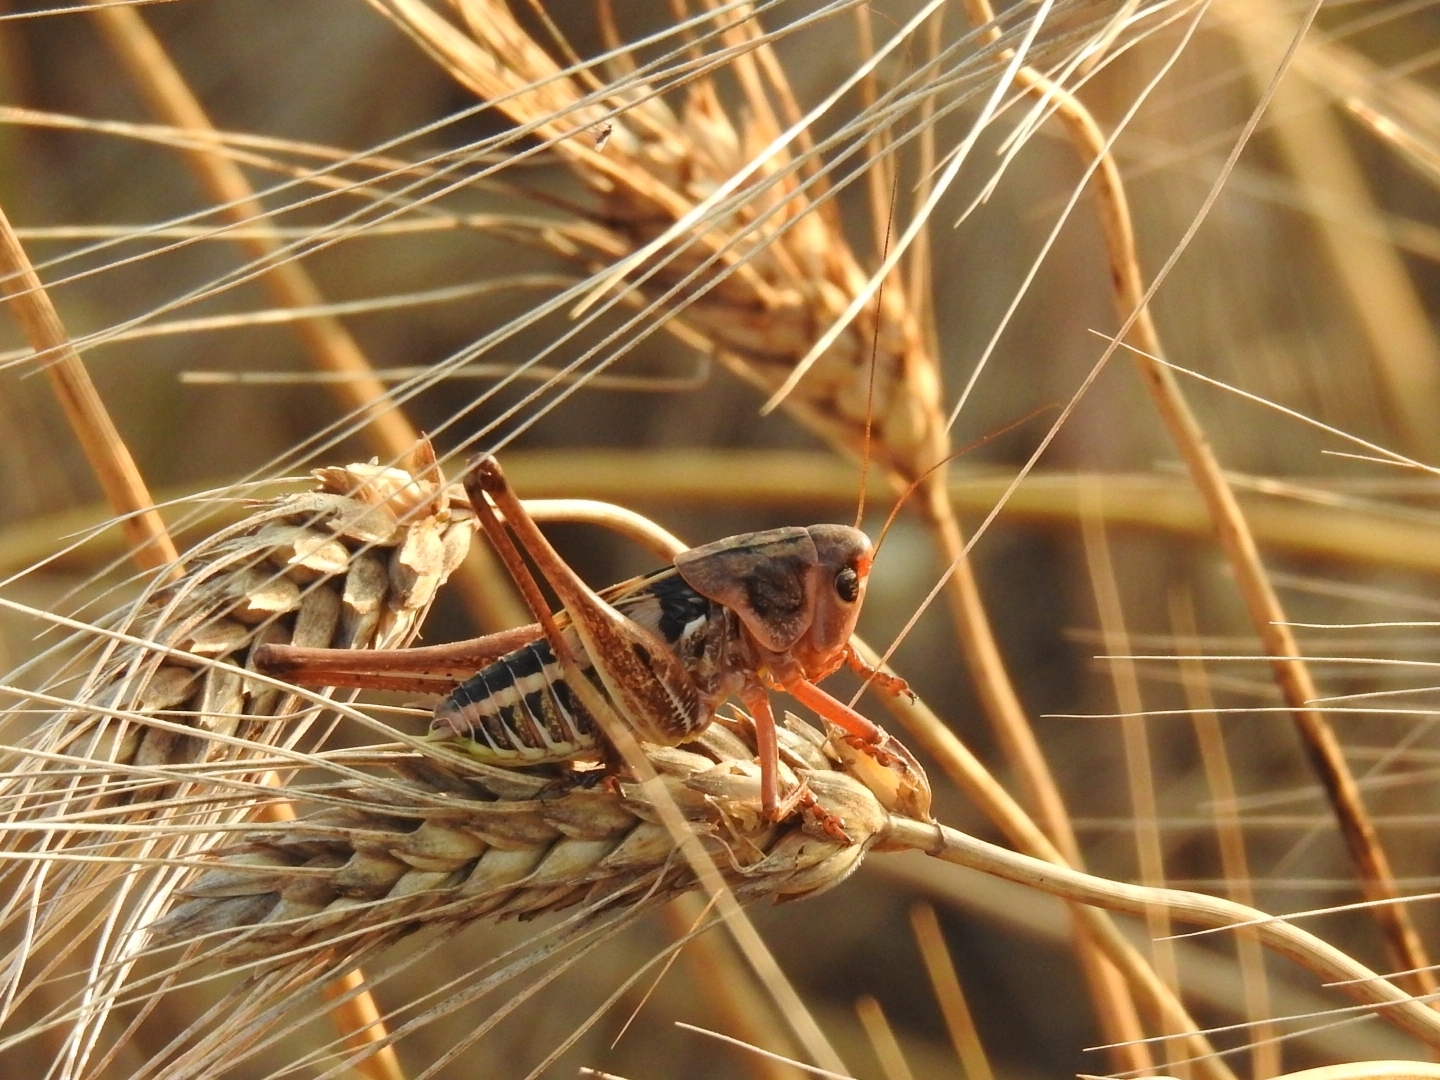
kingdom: Animalia
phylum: Arthropoda
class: Insecta
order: Orthoptera
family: Tettigoniidae
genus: Decticus
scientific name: Decticus albifrons
